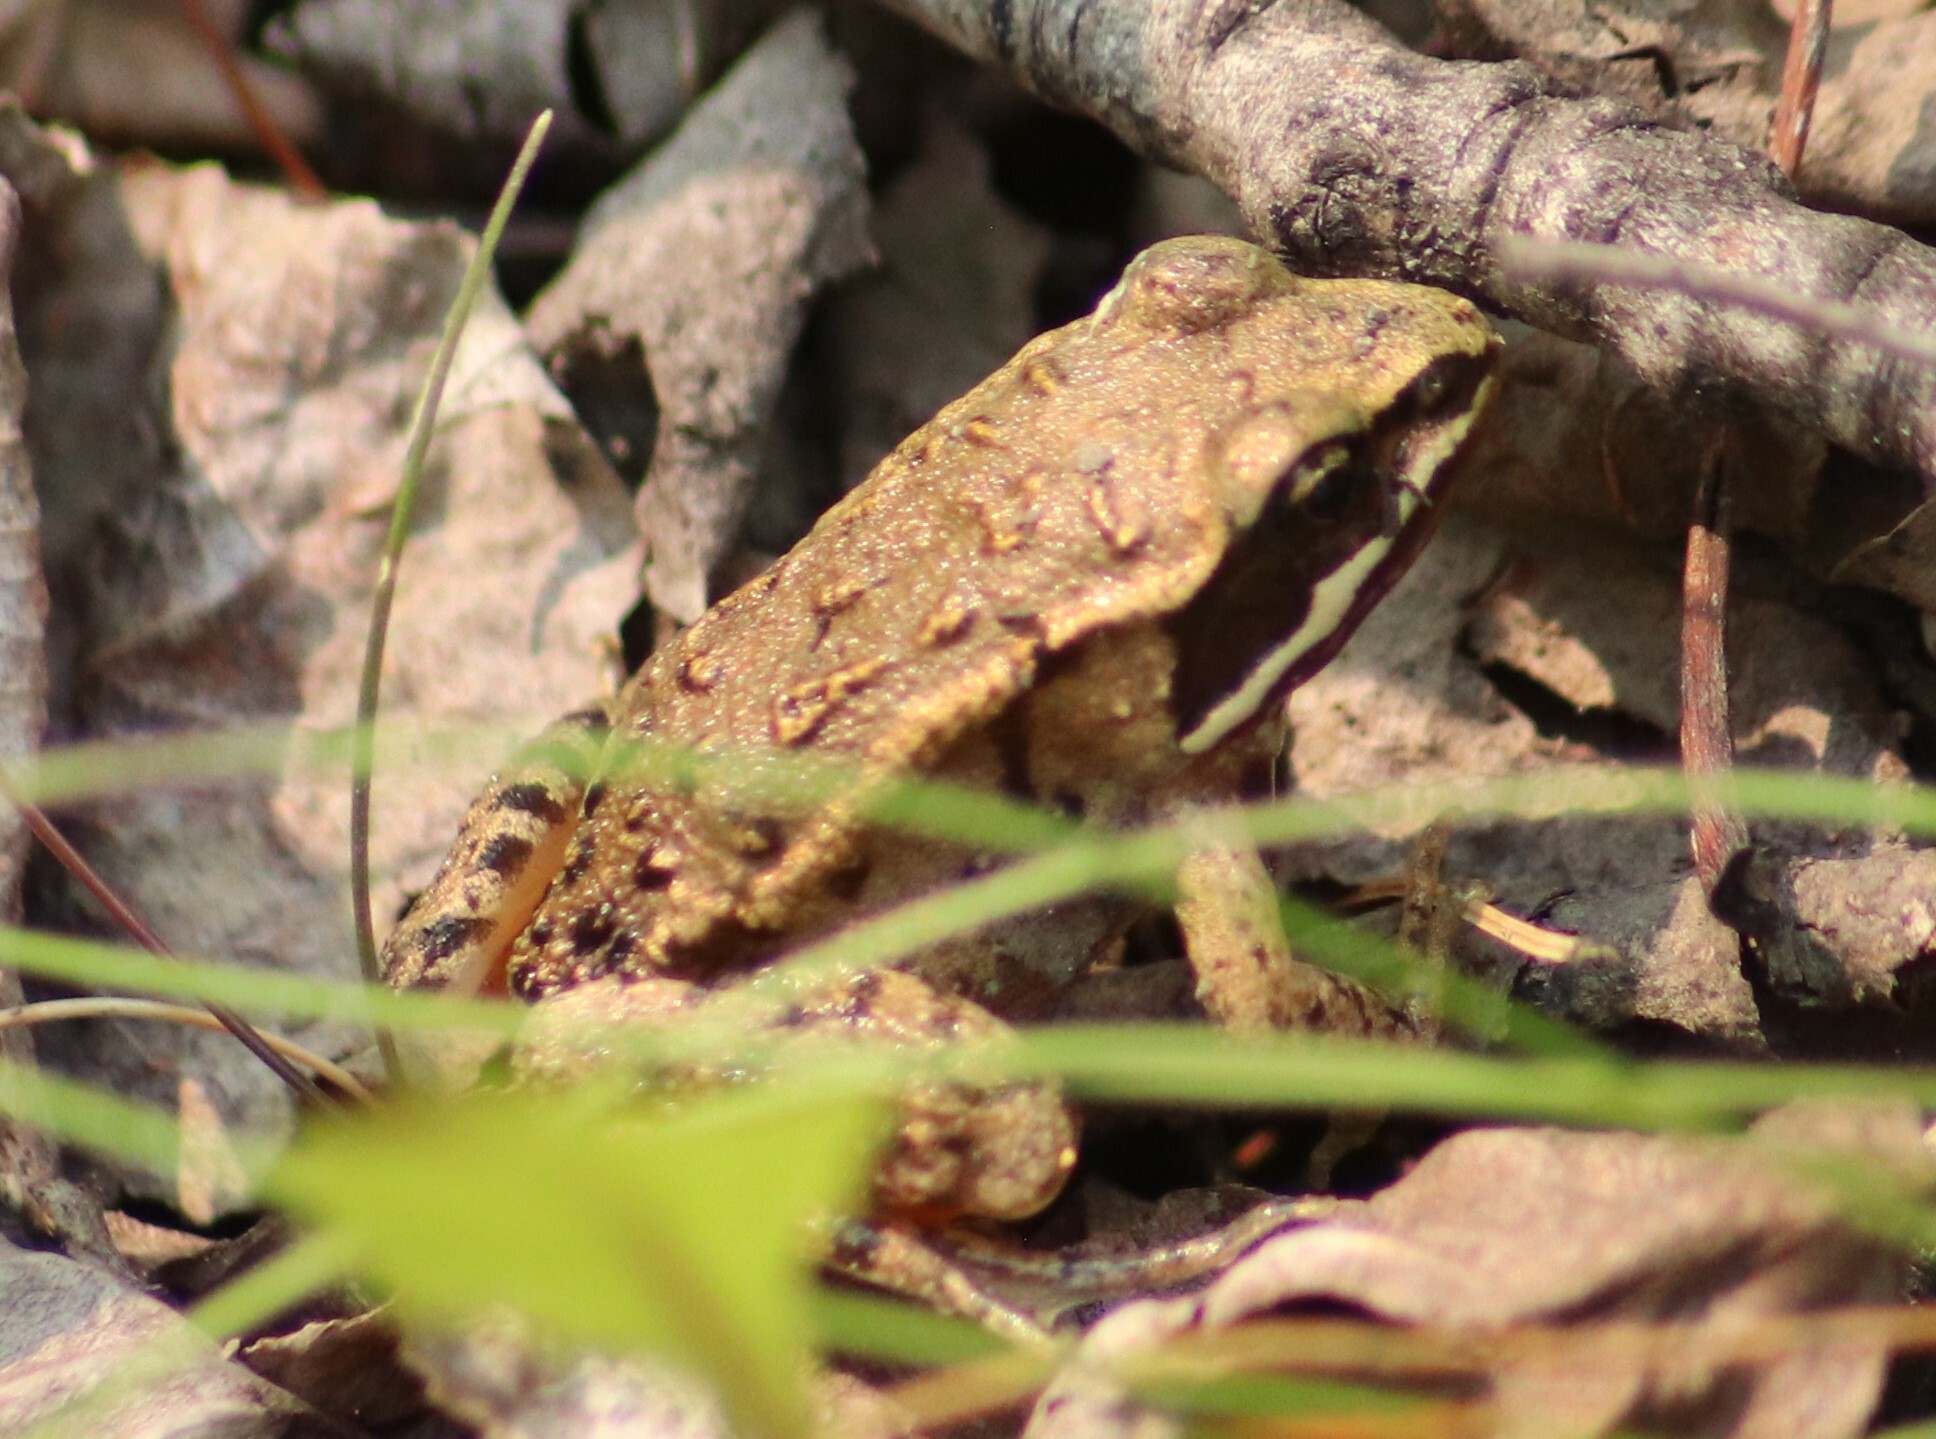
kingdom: Animalia
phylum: Chordata
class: Amphibia
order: Anura
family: Ranidae
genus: Lithobates
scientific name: Lithobates sylvaticus
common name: Wood frog
